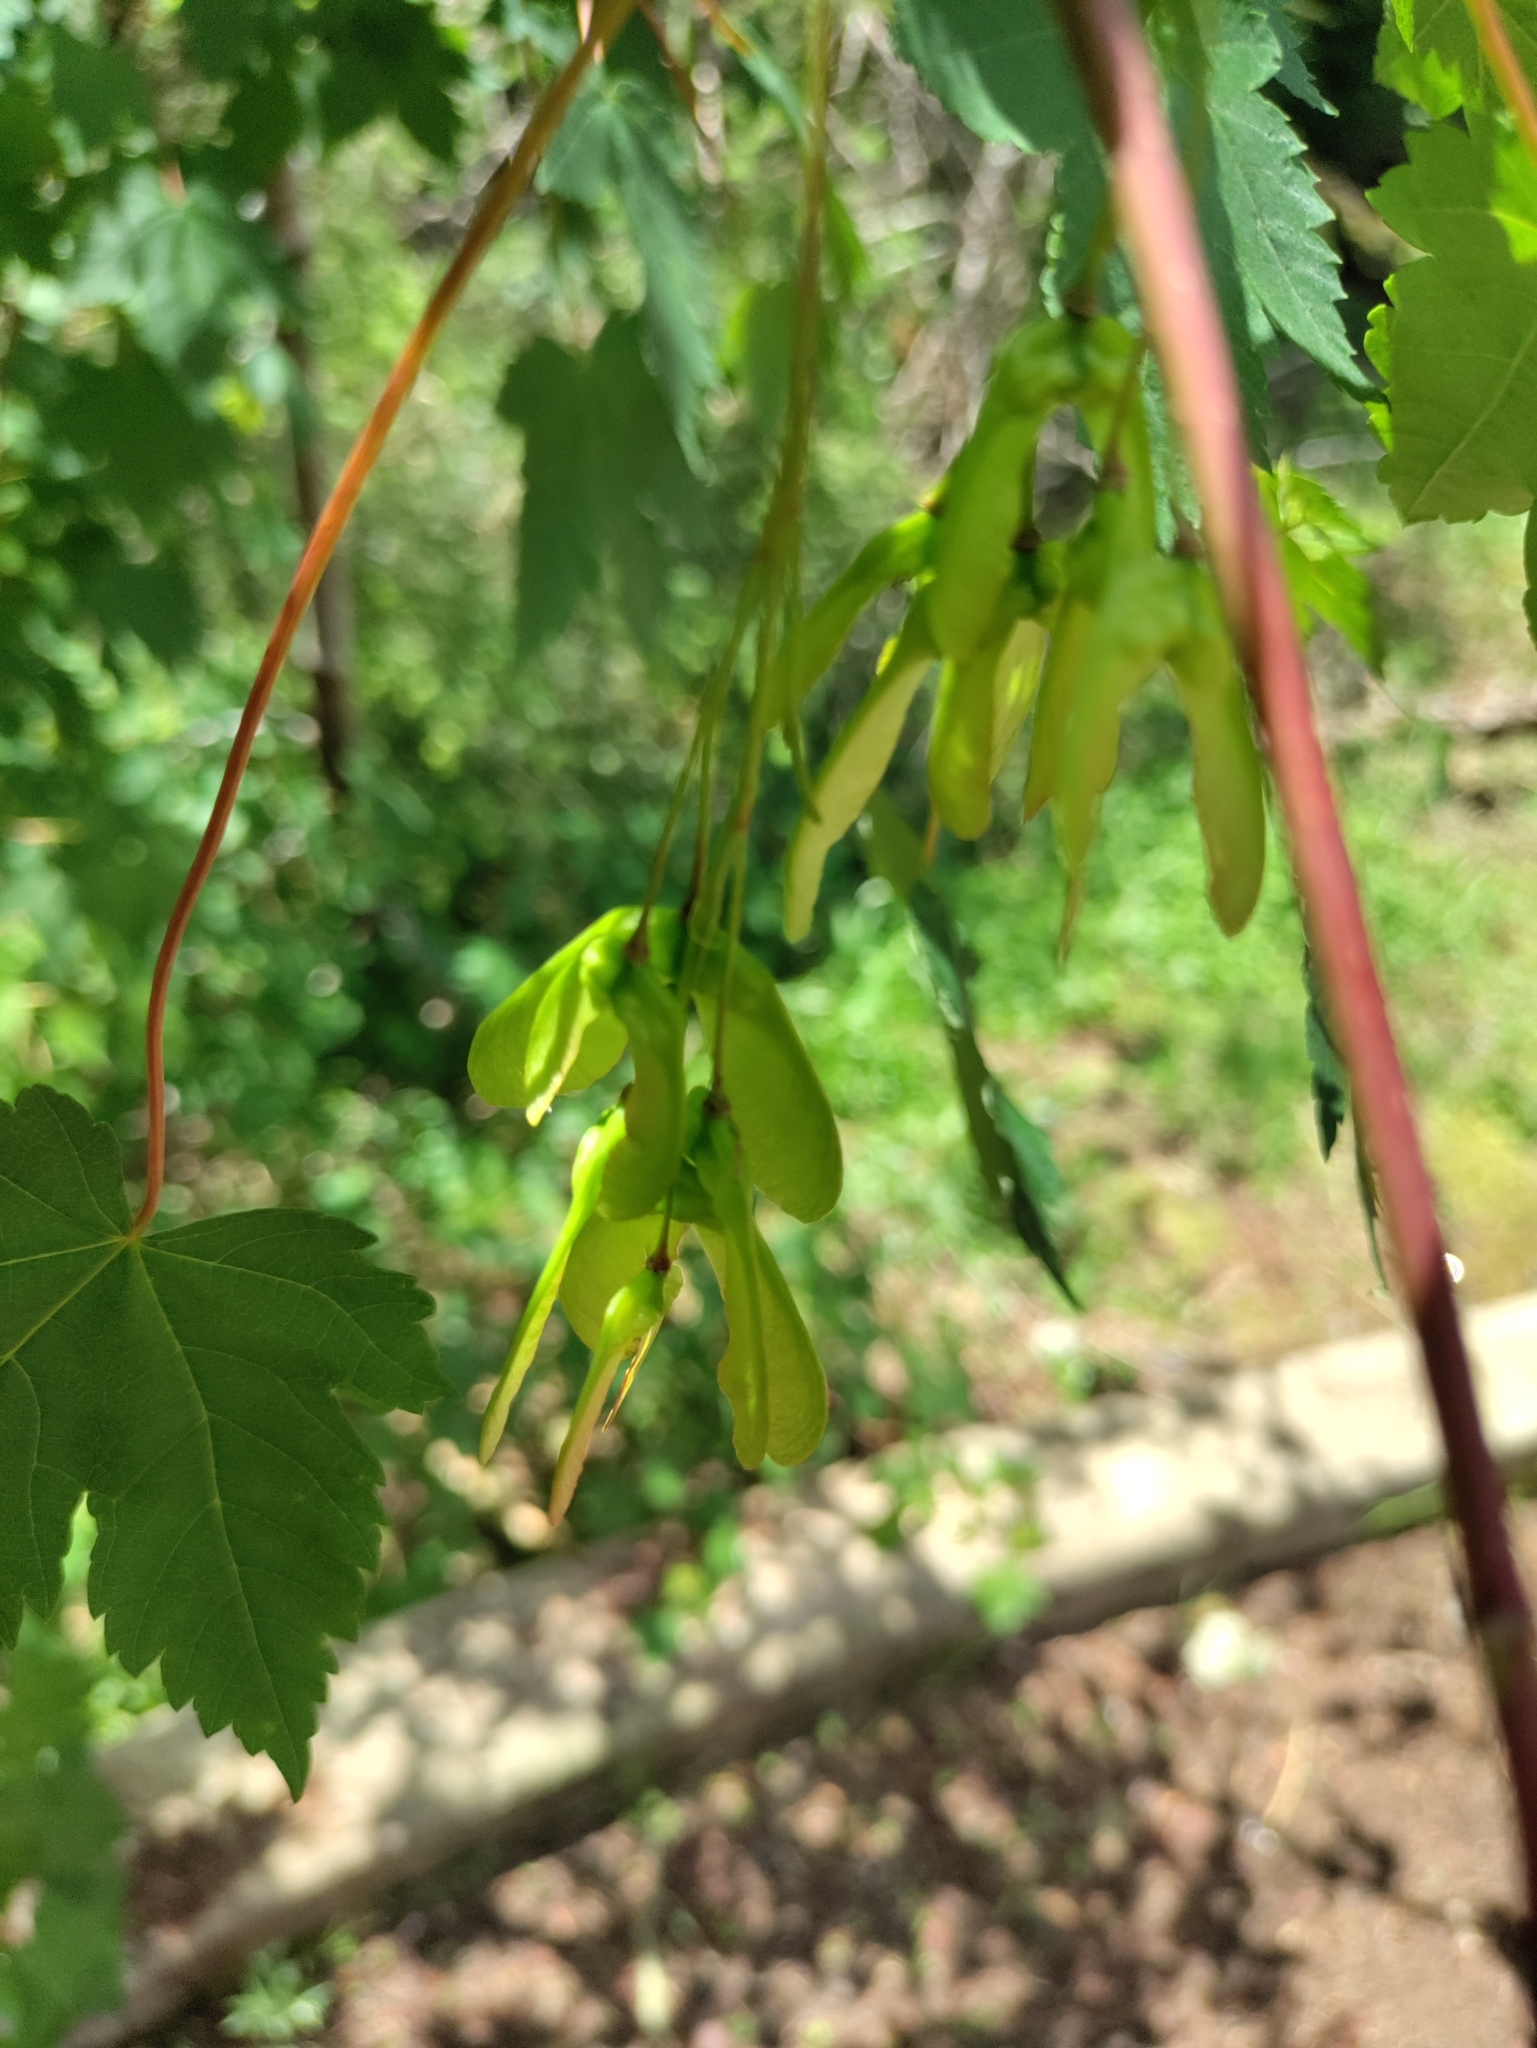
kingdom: Plantae
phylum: Tracheophyta
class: Magnoliopsida
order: Sapindales
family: Sapindaceae
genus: Acer
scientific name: Acer glabrum
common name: Rocky mountain maple
